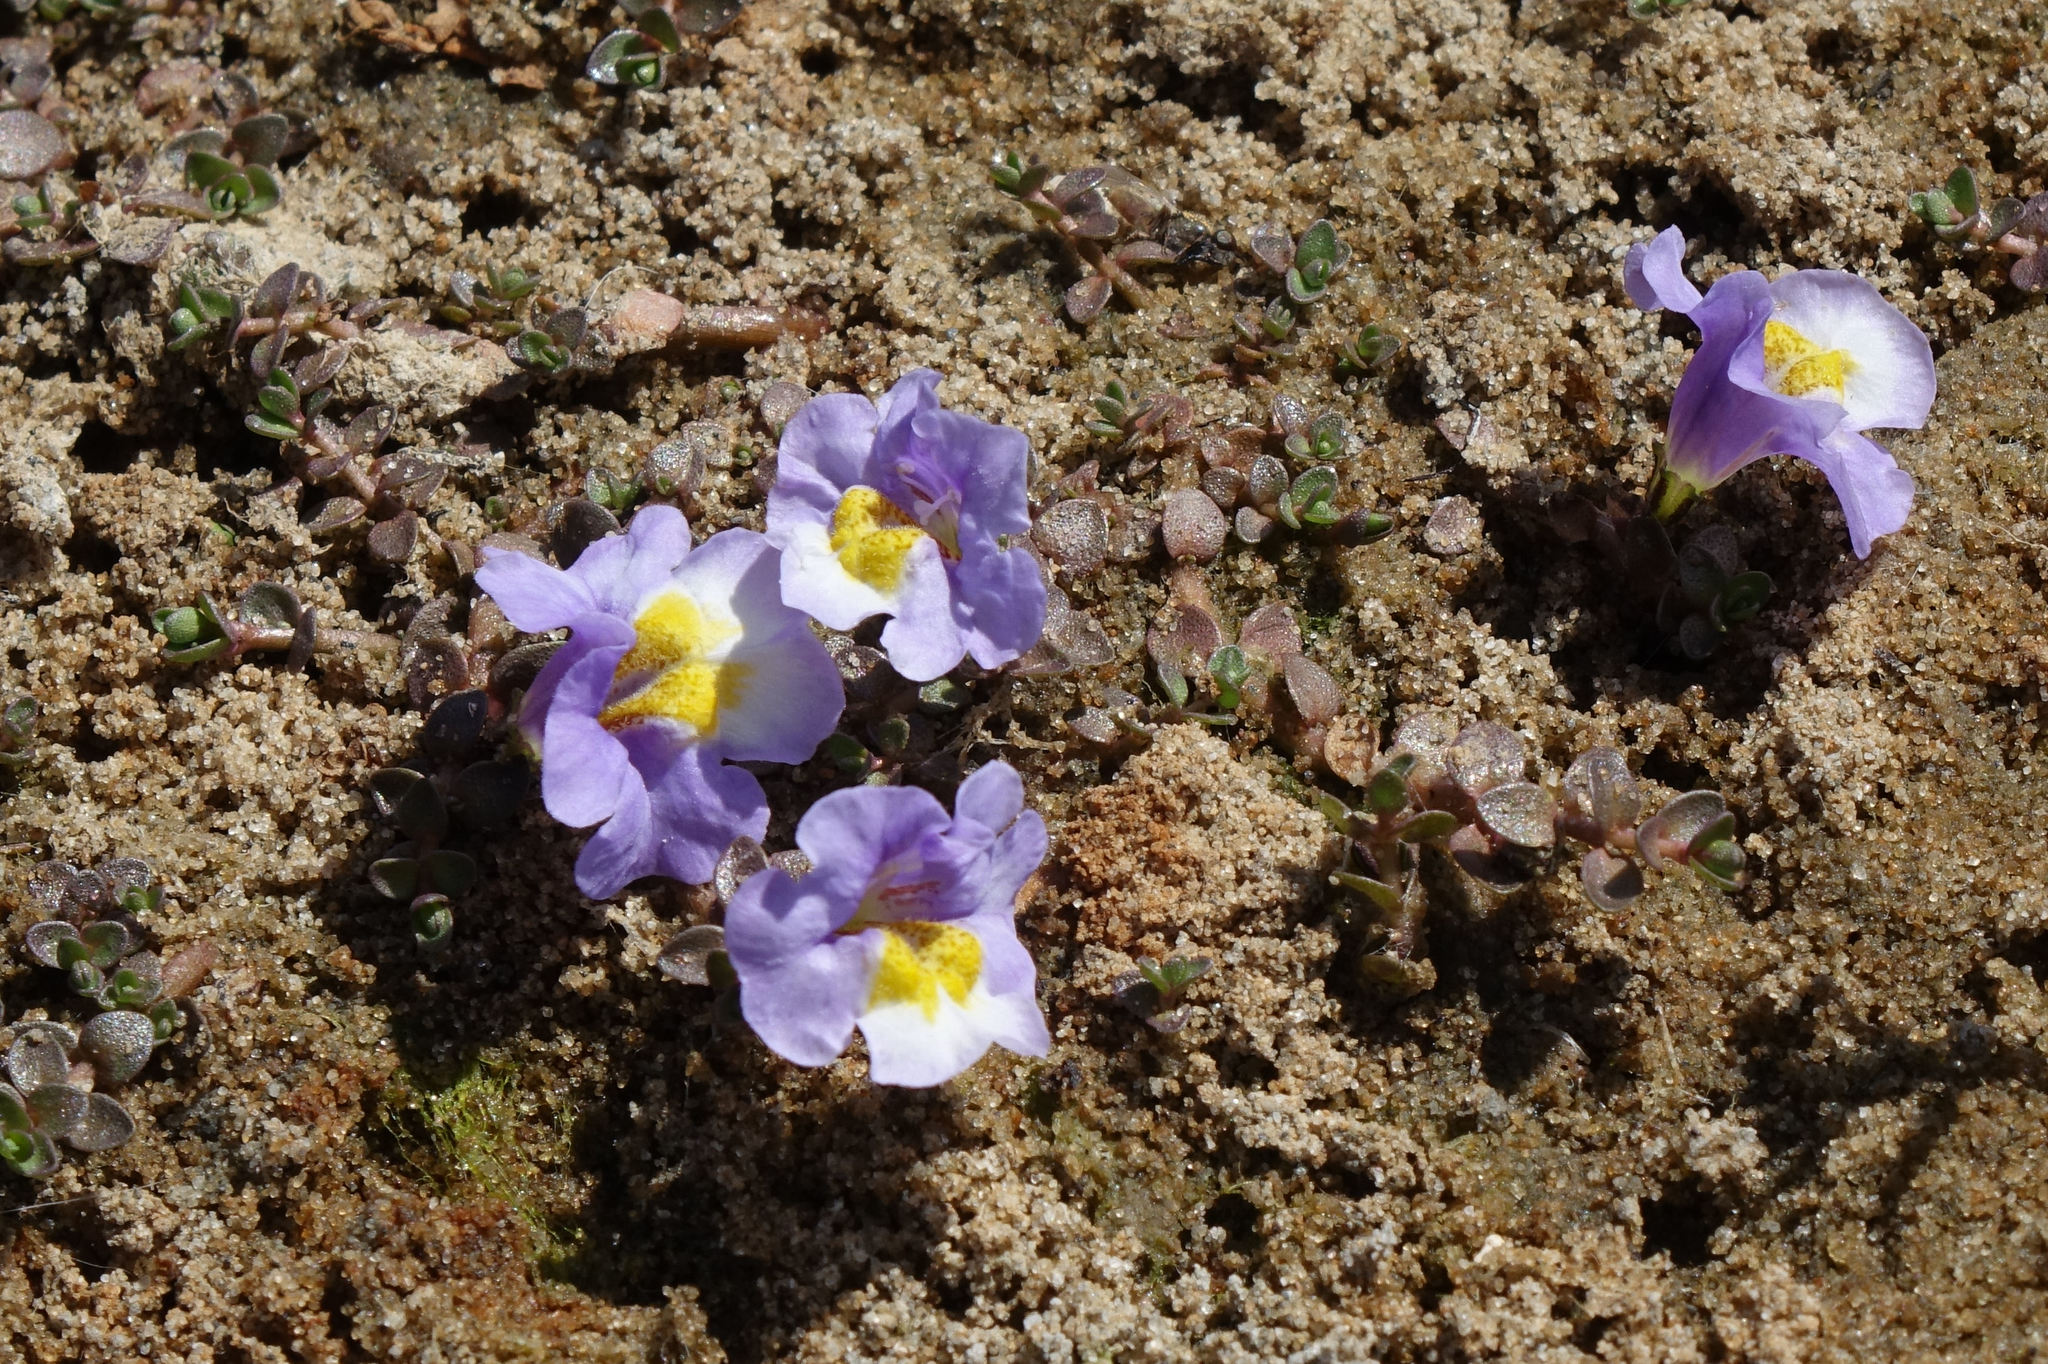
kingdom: Plantae
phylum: Tracheophyta
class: Magnoliopsida
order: Lamiales
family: Phrymaceae
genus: Thyridia
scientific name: Thyridia repens
